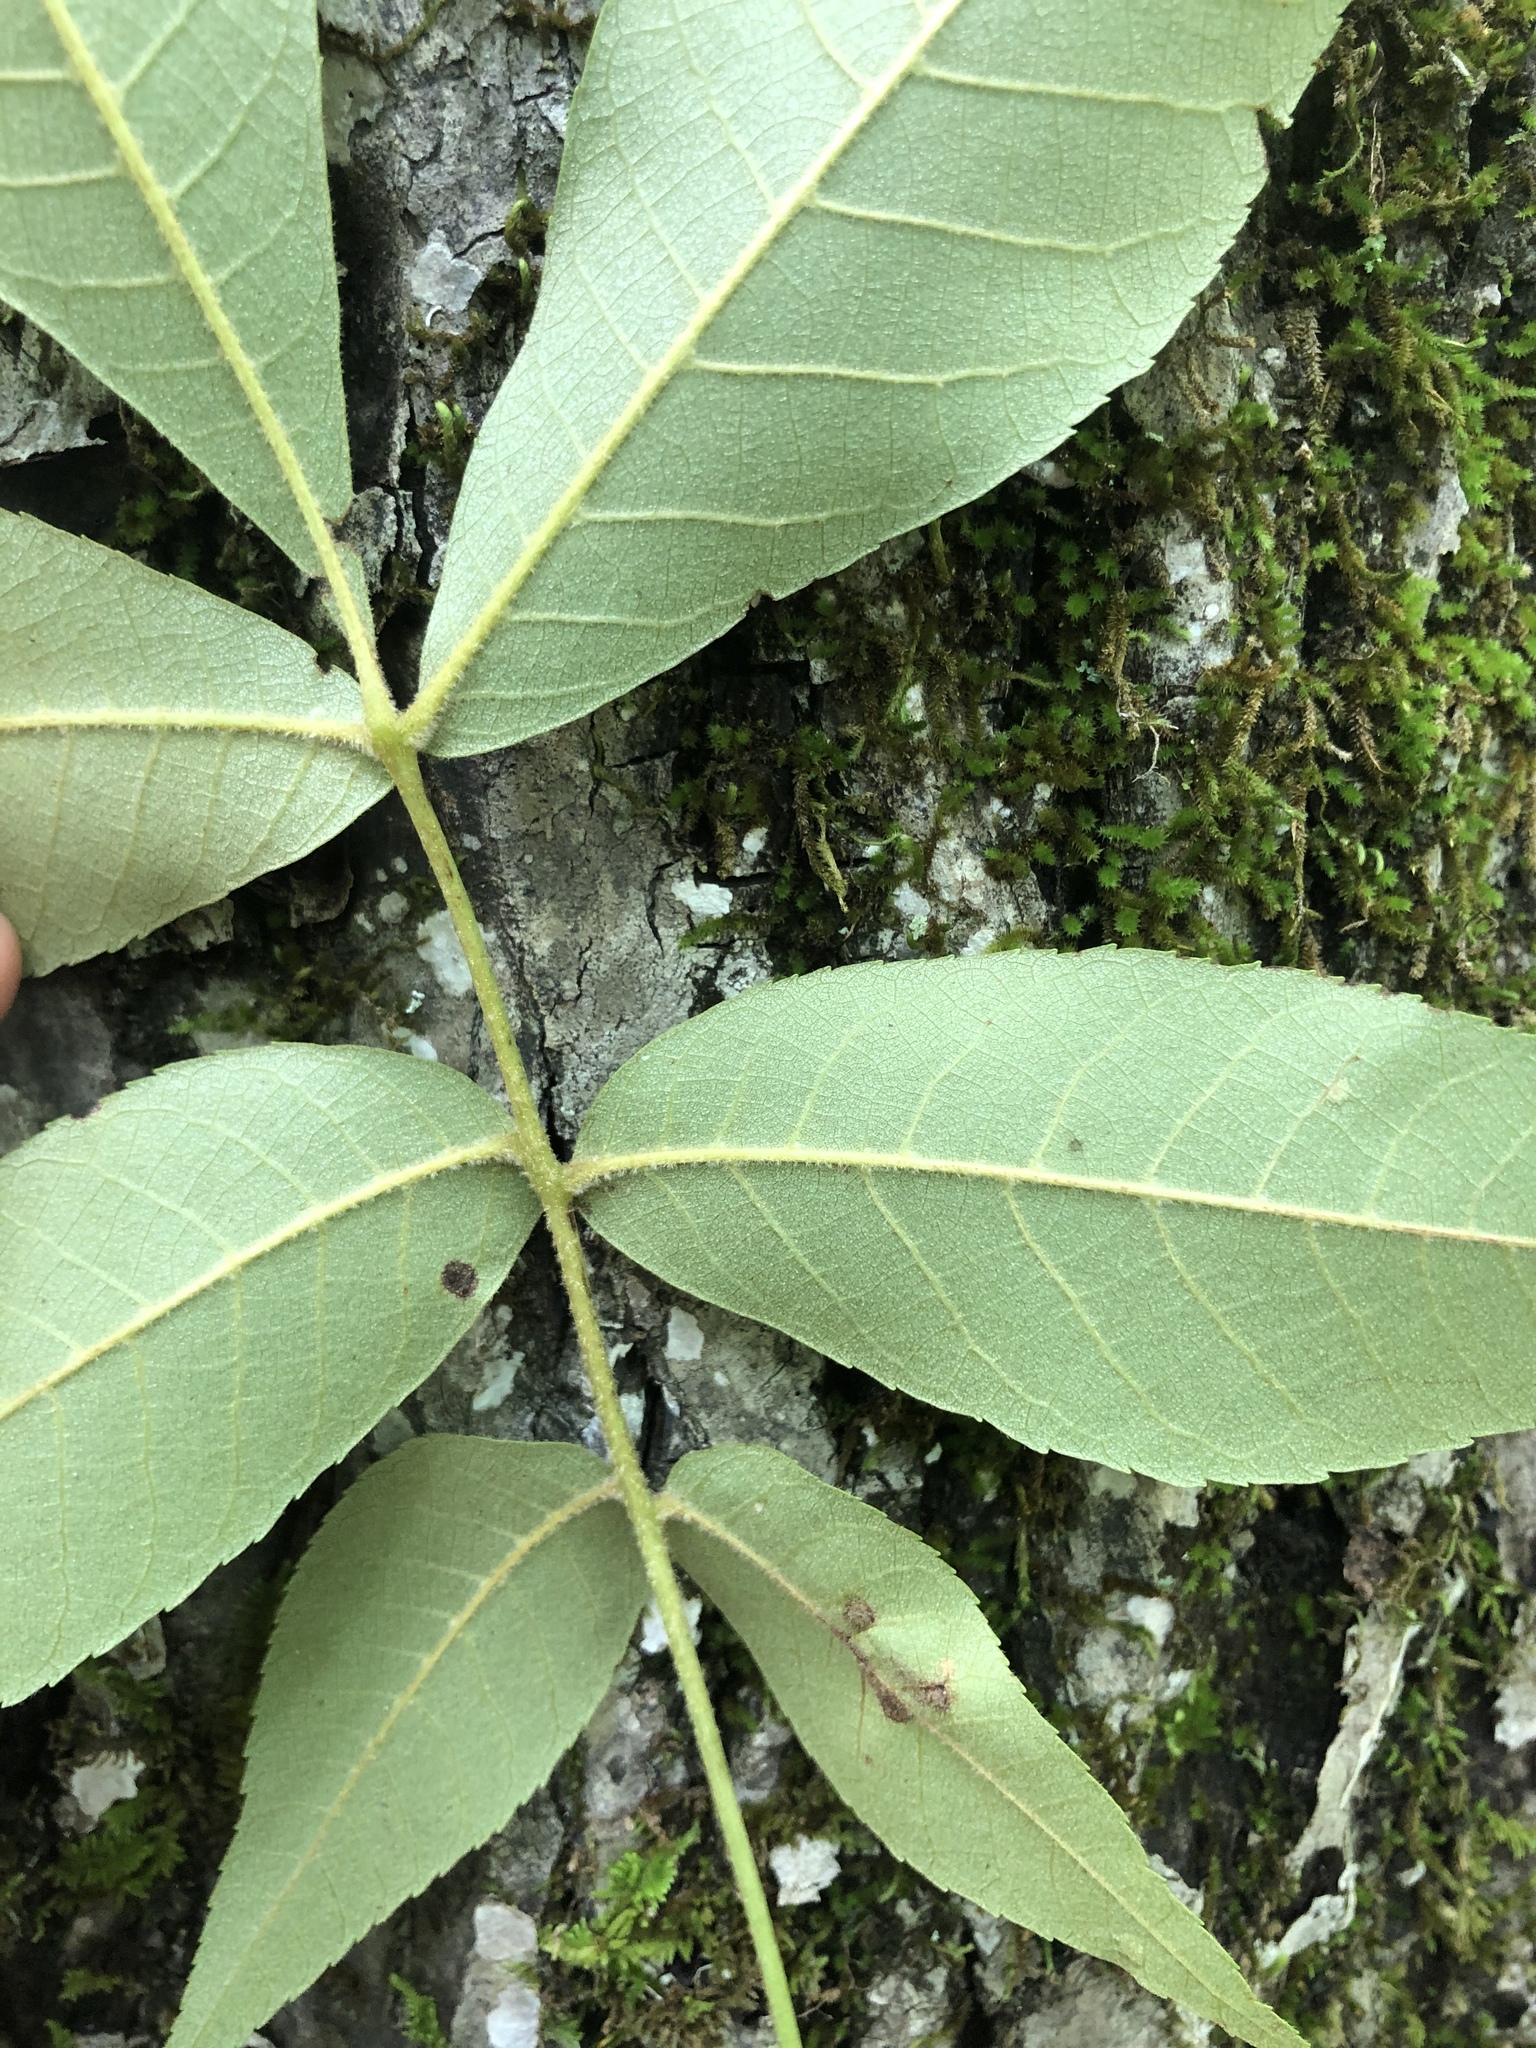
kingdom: Plantae
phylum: Tracheophyta
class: Magnoliopsida
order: Fagales
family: Juglandaceae
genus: Carya
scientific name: Carya pallida
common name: Sand hickory
